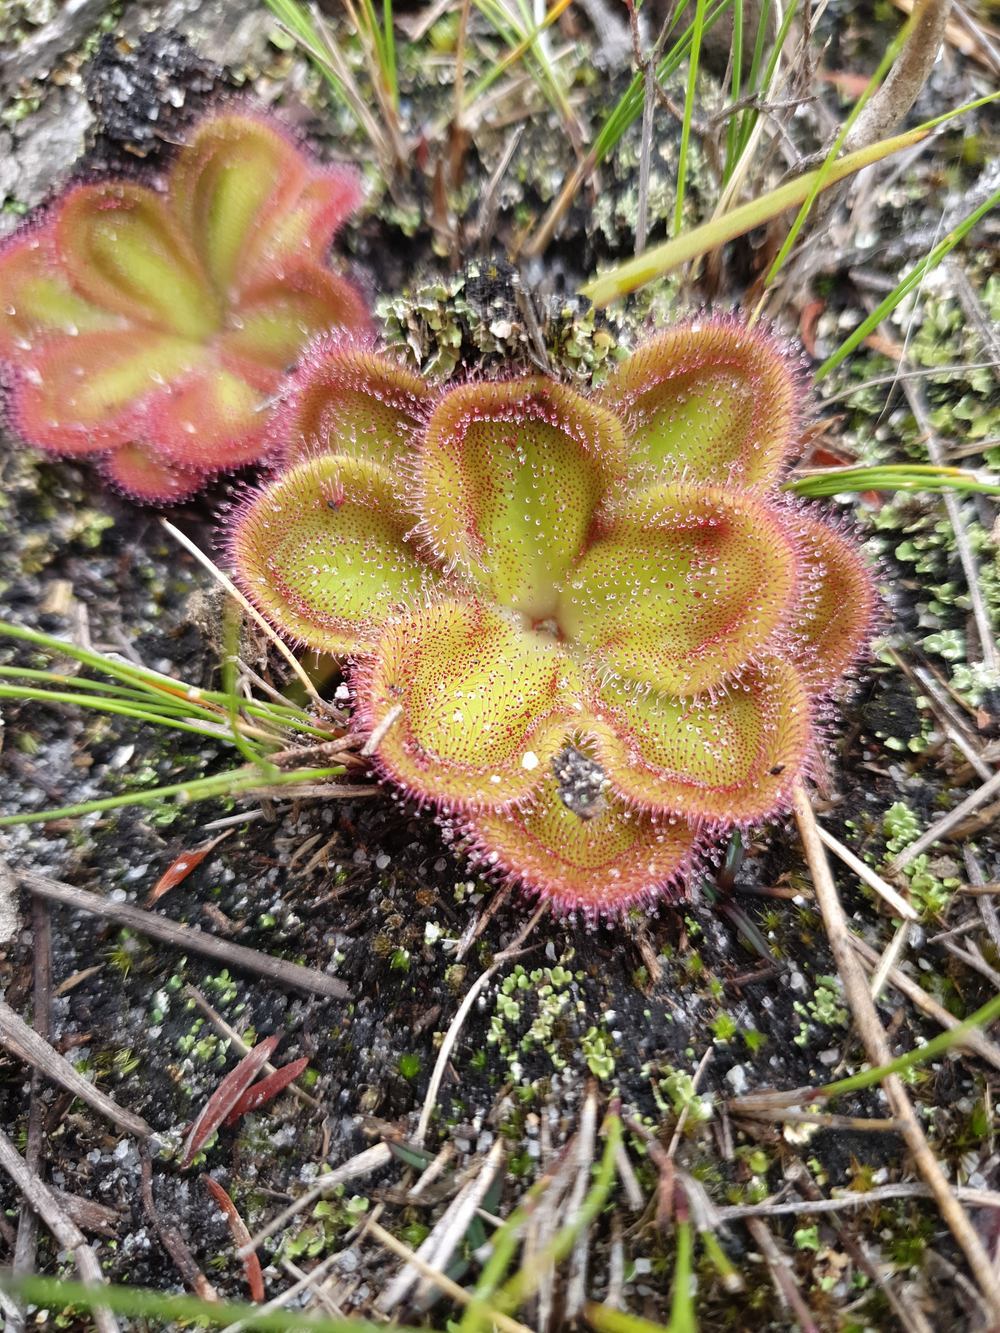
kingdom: Plantae
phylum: Tracheophyta
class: Magnoliopsida
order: Caryophyllales
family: Droseraceae
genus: Drosera
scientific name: Drosera erythrorhiza
